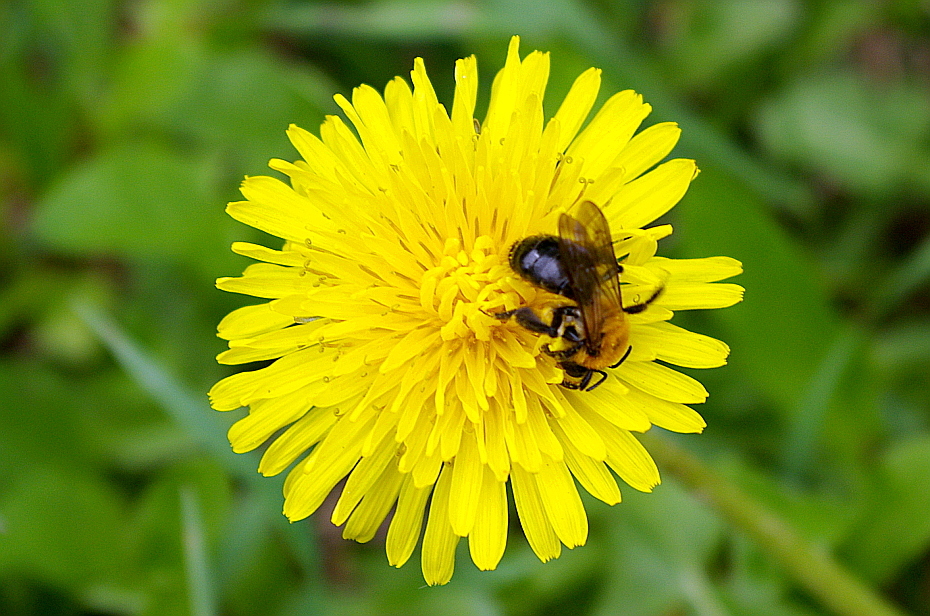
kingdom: Animalia
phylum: Arthropoda
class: Insecta
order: Hymenoptera
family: Andrenidae
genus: Andrena
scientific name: Andrena
